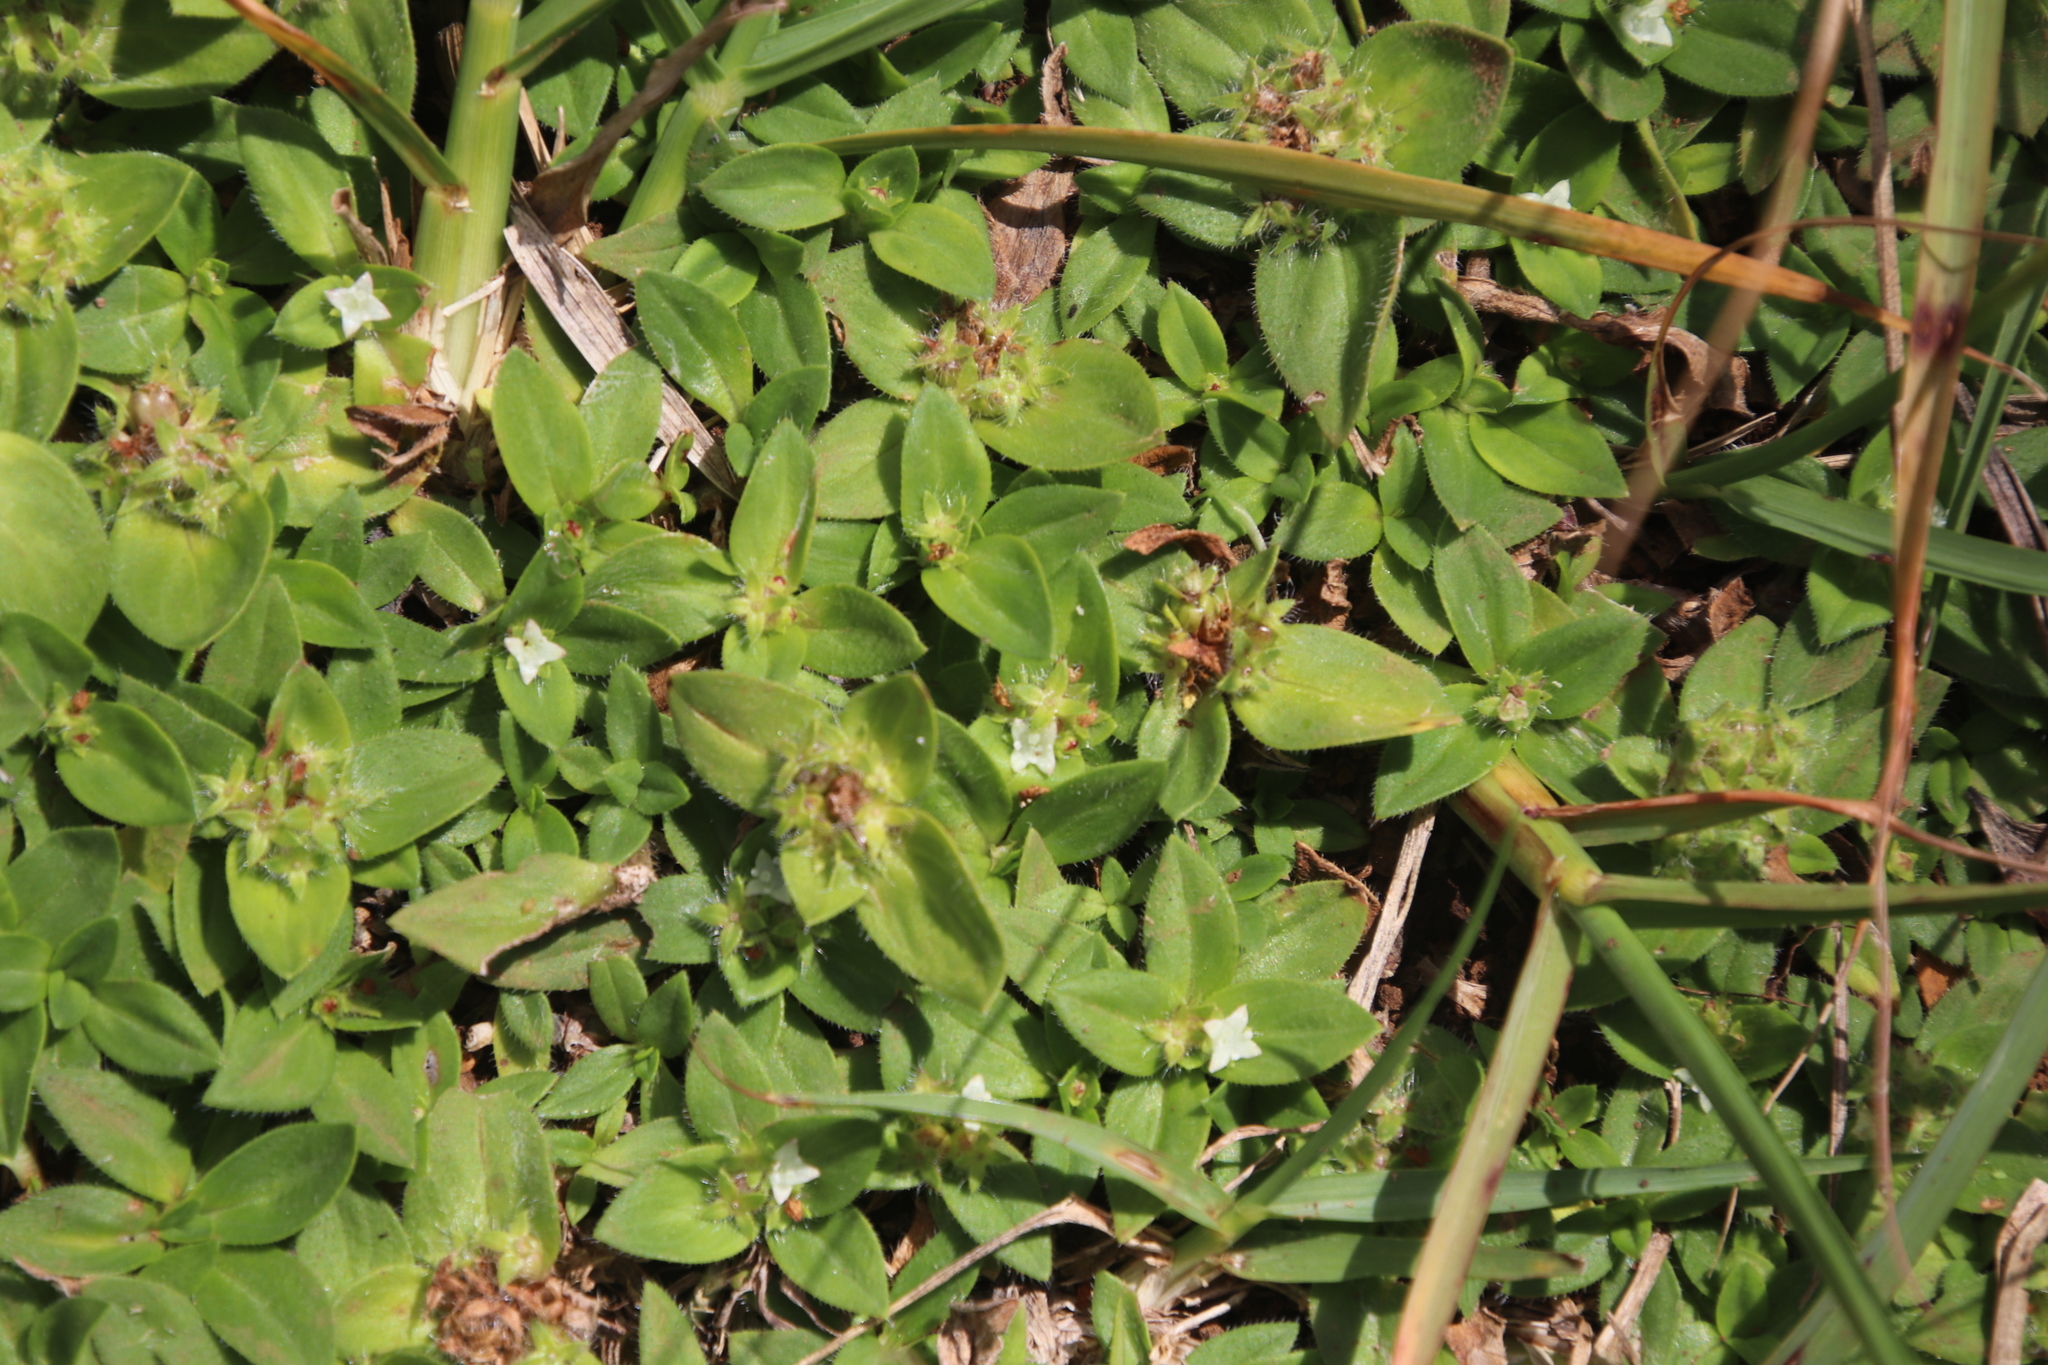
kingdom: Plantae
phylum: Tracheophyta
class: Magnoliopsida
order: Gentianales
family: Rubiaceae
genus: Richardia
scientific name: Richardia brasiliensis
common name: Tropical mexican clover
